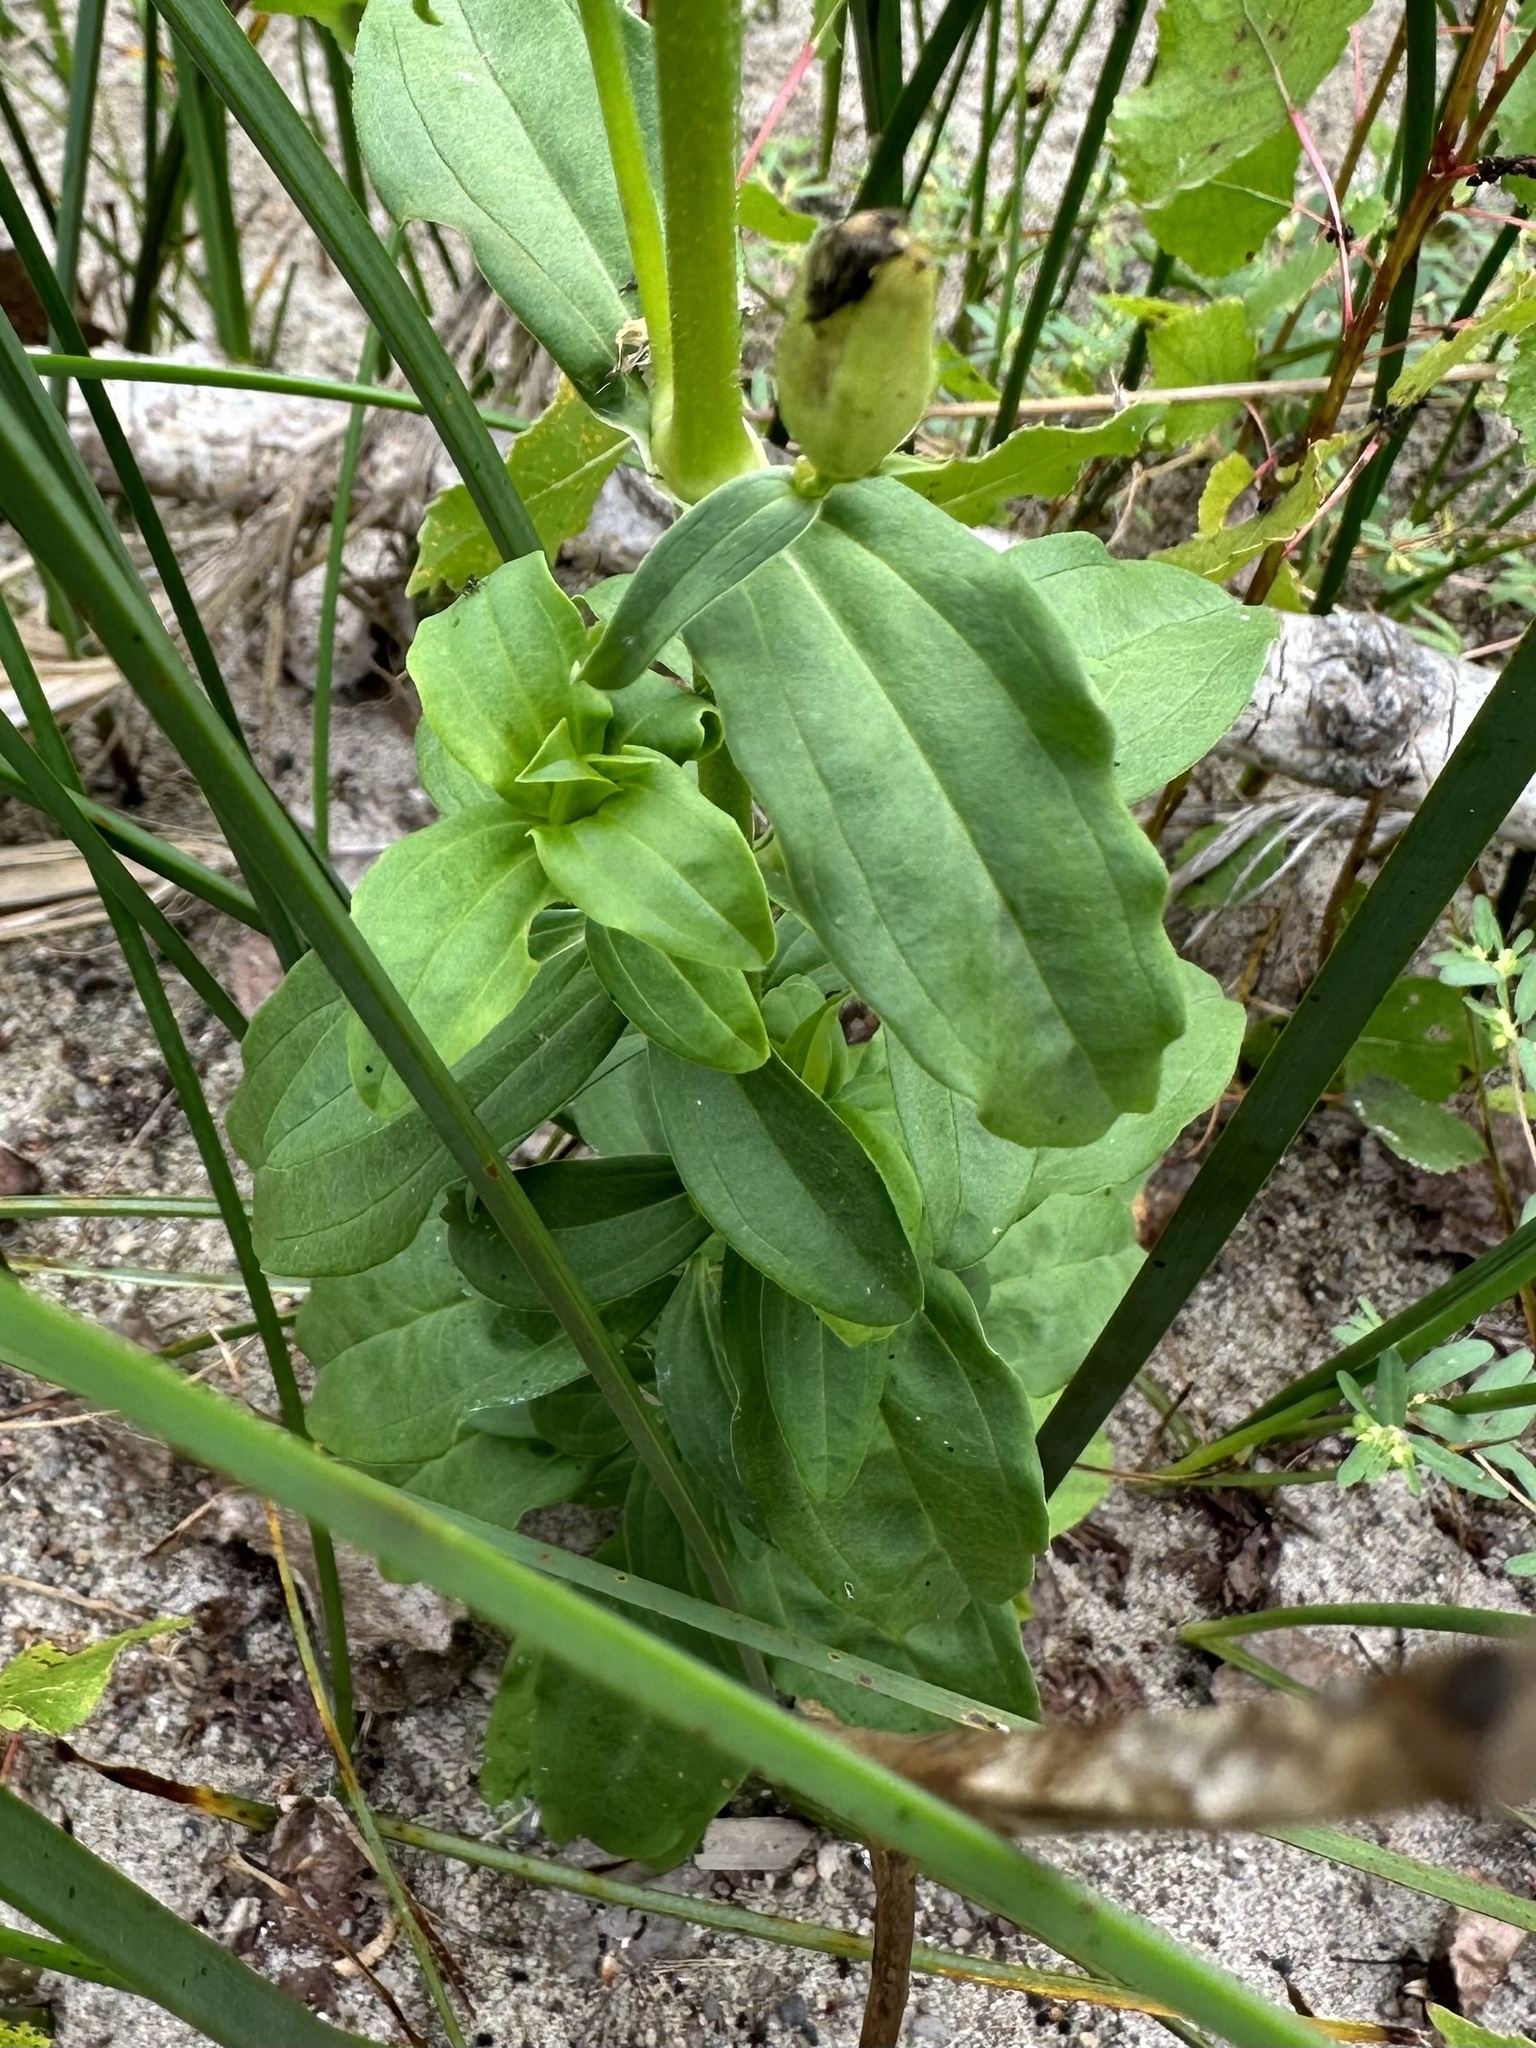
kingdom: Plantae
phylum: Tracheophyta
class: Magnoliopsida
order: Caryophyllales
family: Caryophyllaceae
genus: Saponaria
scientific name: Saponaria officinalis
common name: Soapwort
